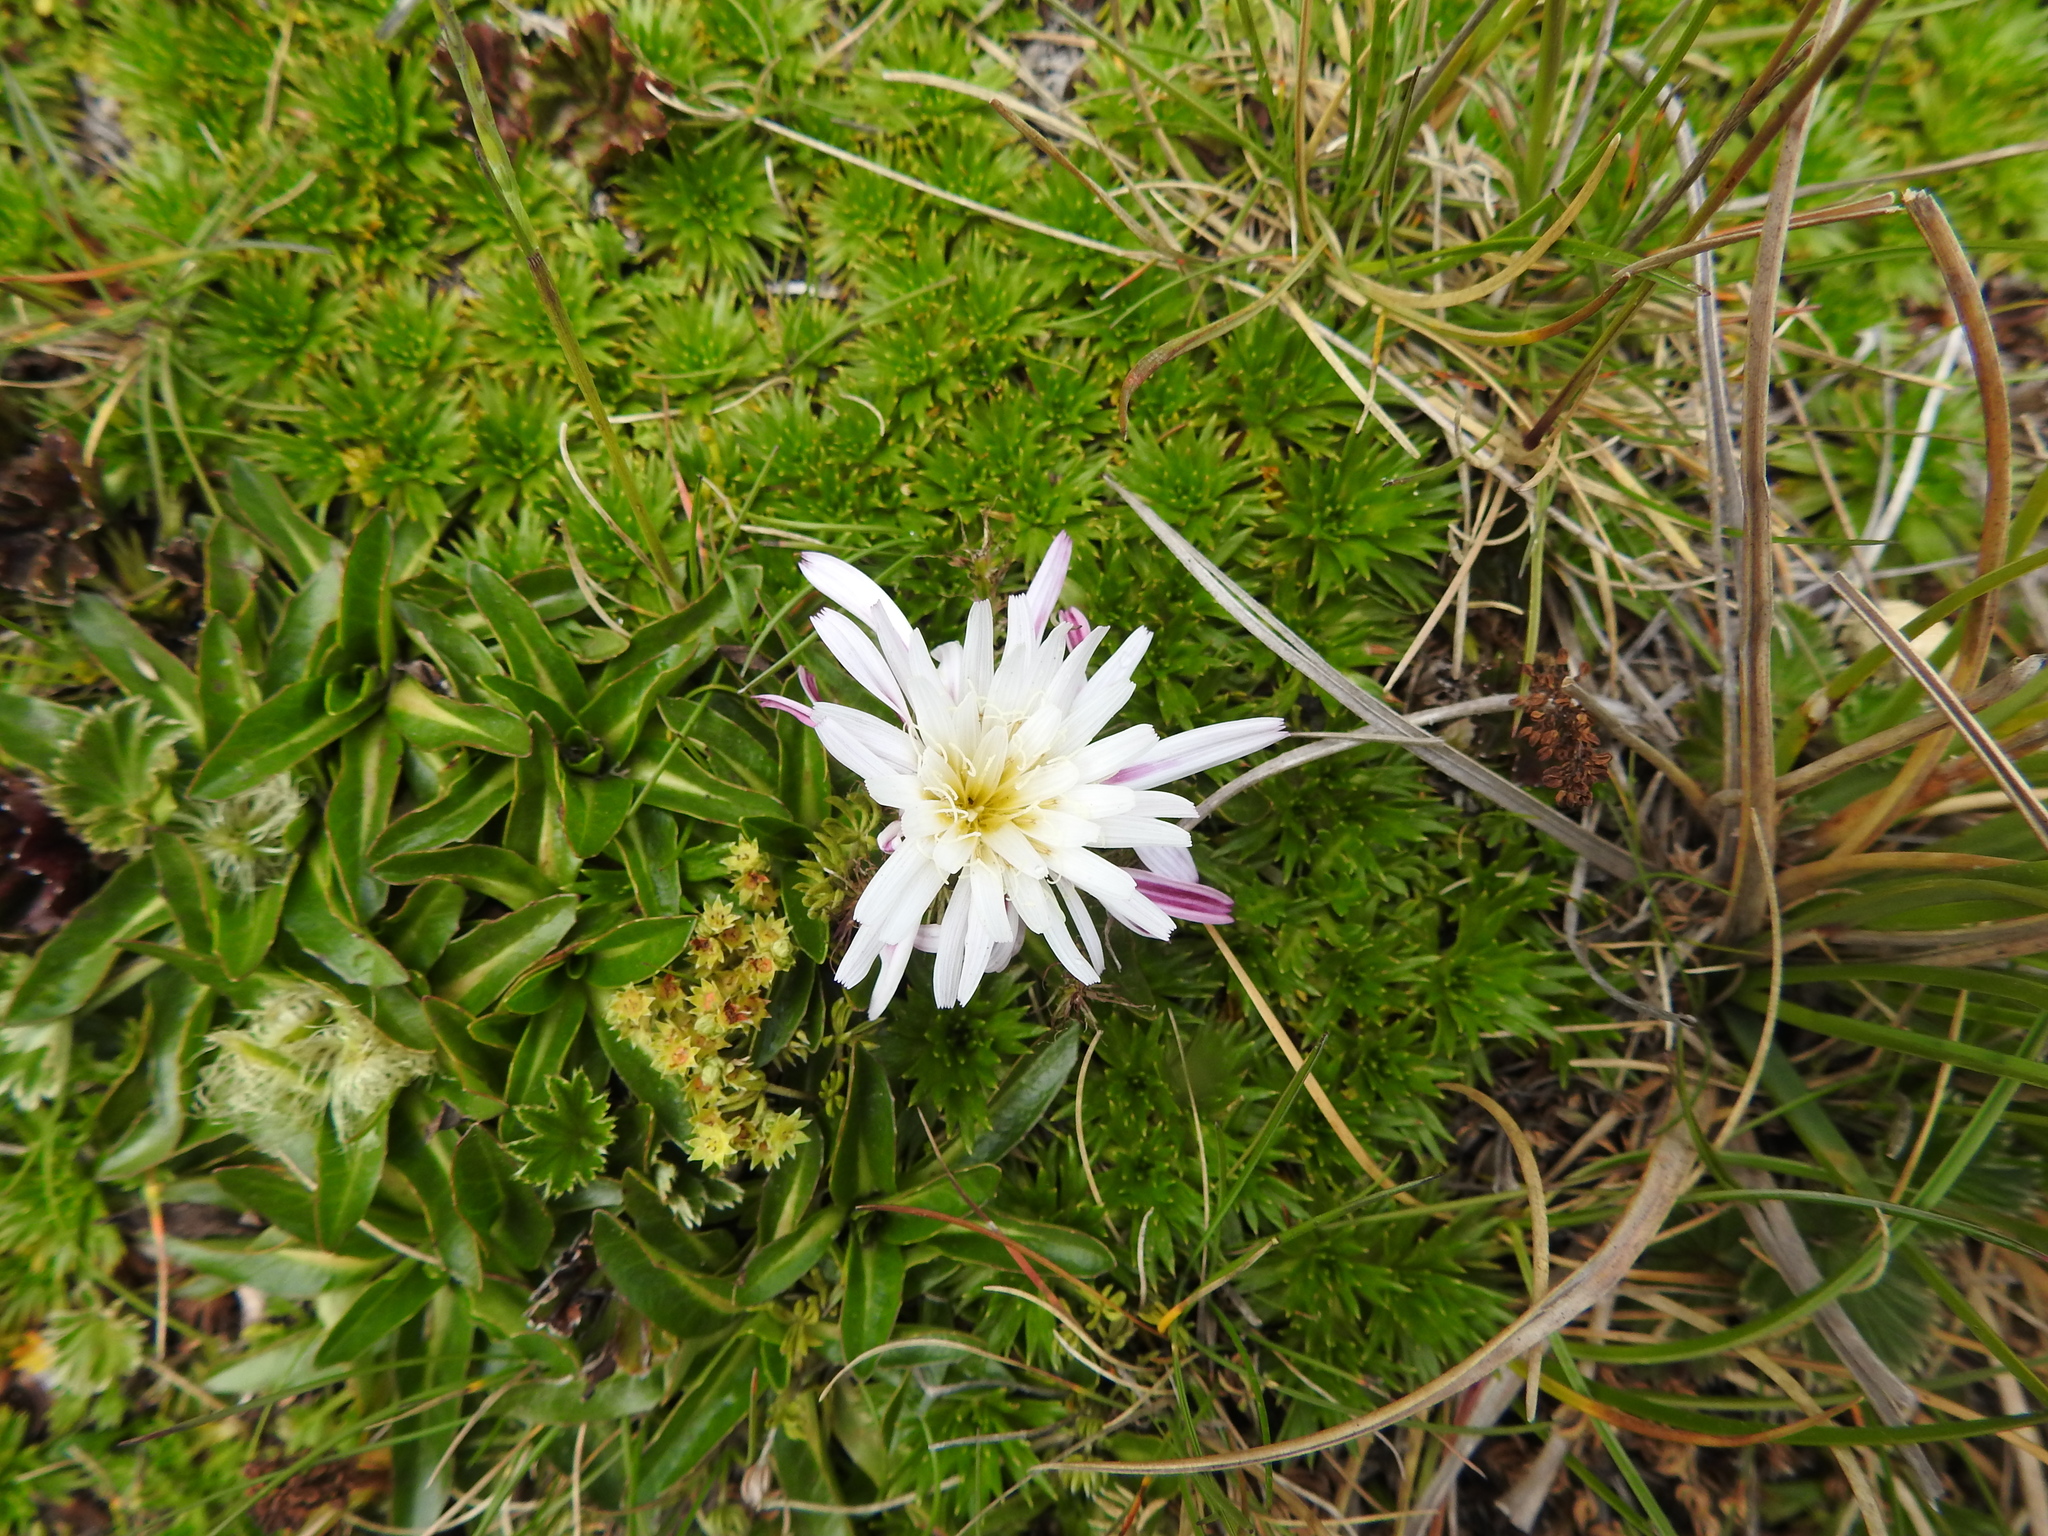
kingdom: Plantae
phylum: Tracheophyta
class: Magnoliopsida
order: Asterales
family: Asteraceae
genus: Hypochaeris
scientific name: Hypochaeris sessiliflora
